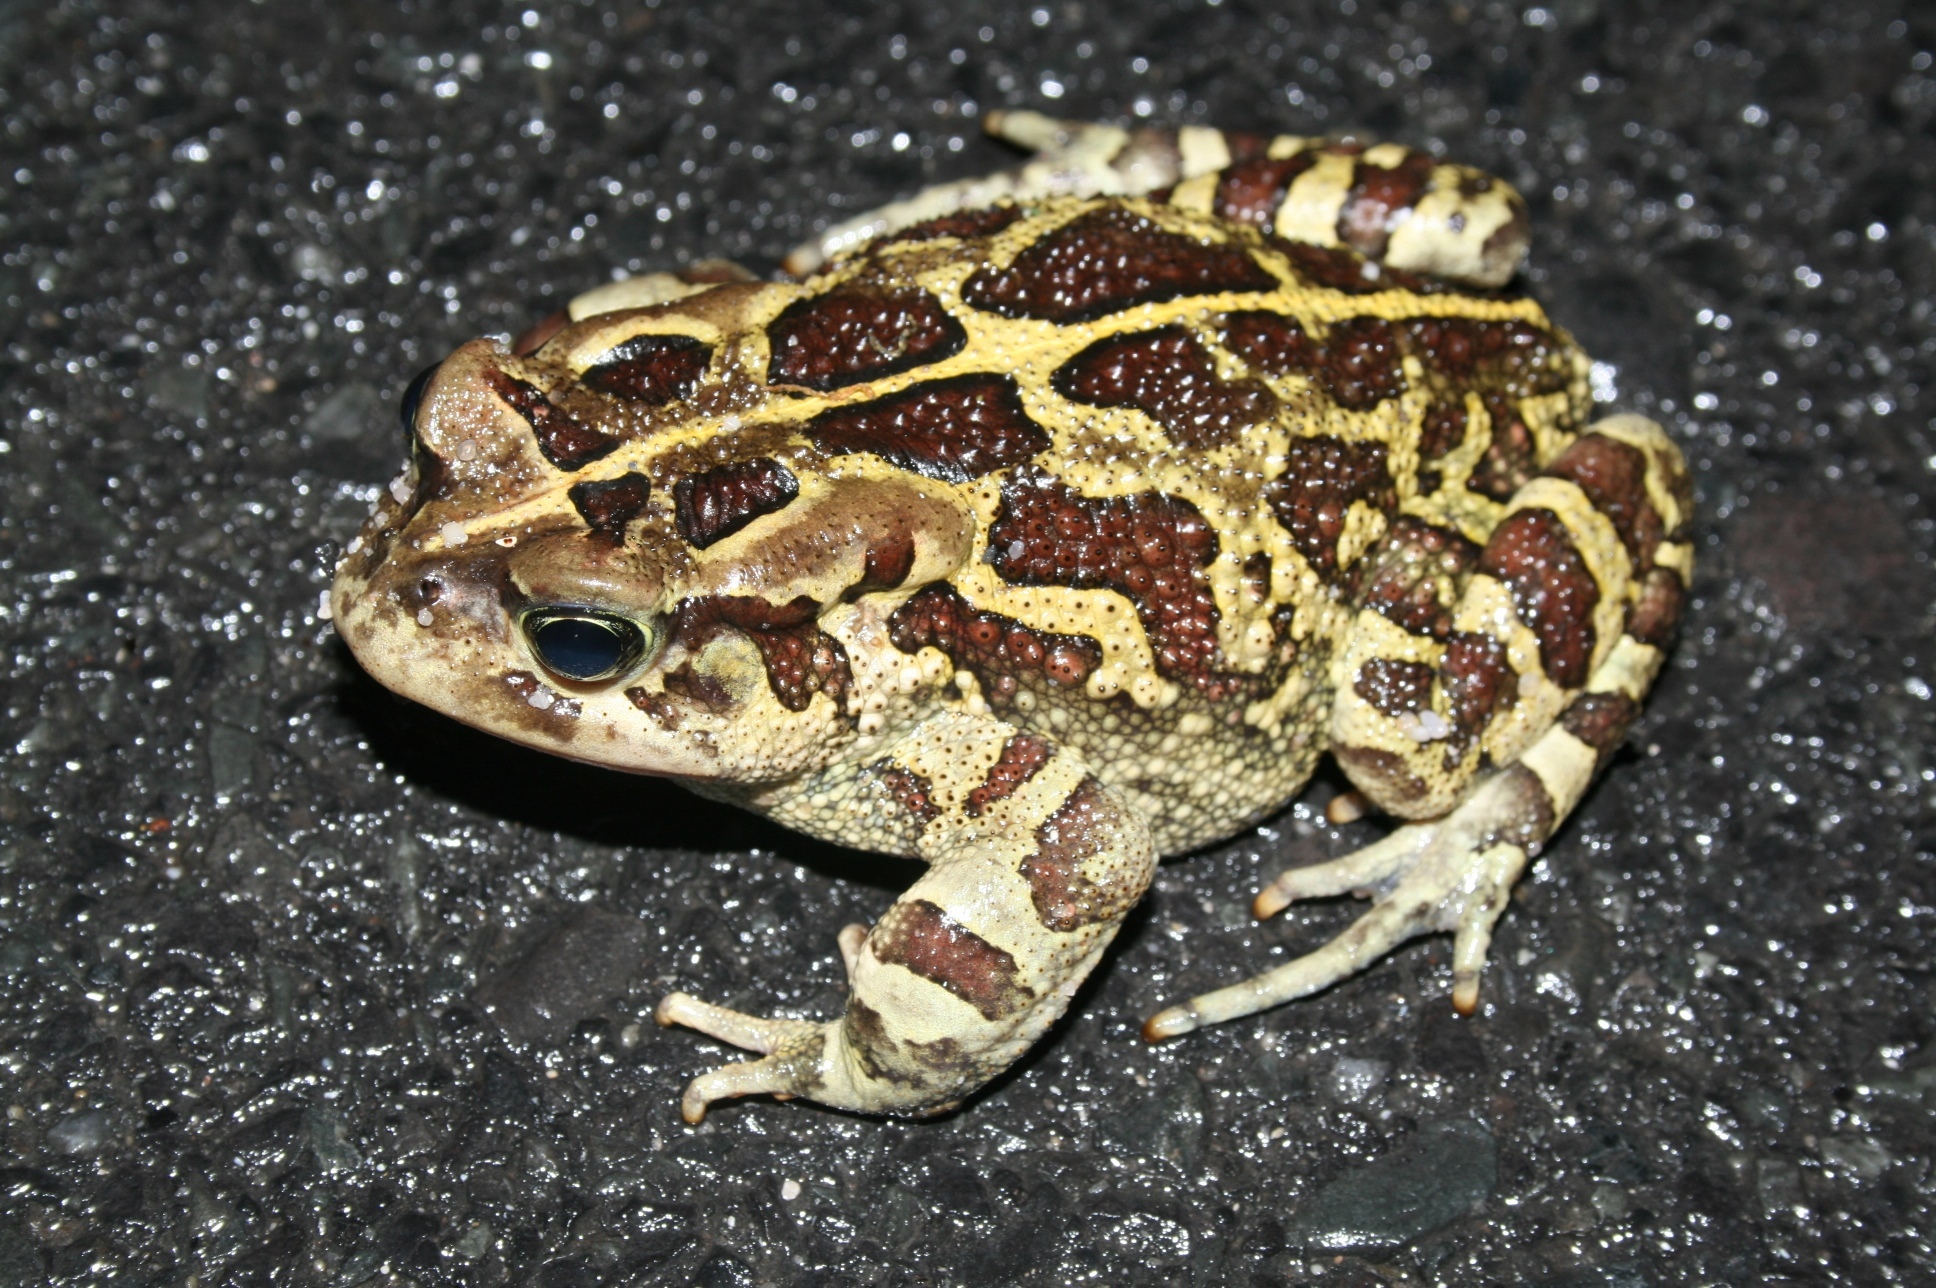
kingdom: Animalia
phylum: Chordata
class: Amphibia
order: Anura
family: Bufonidae
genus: Sclerophrys
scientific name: Sclerophrys pantherina
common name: Panther toad
